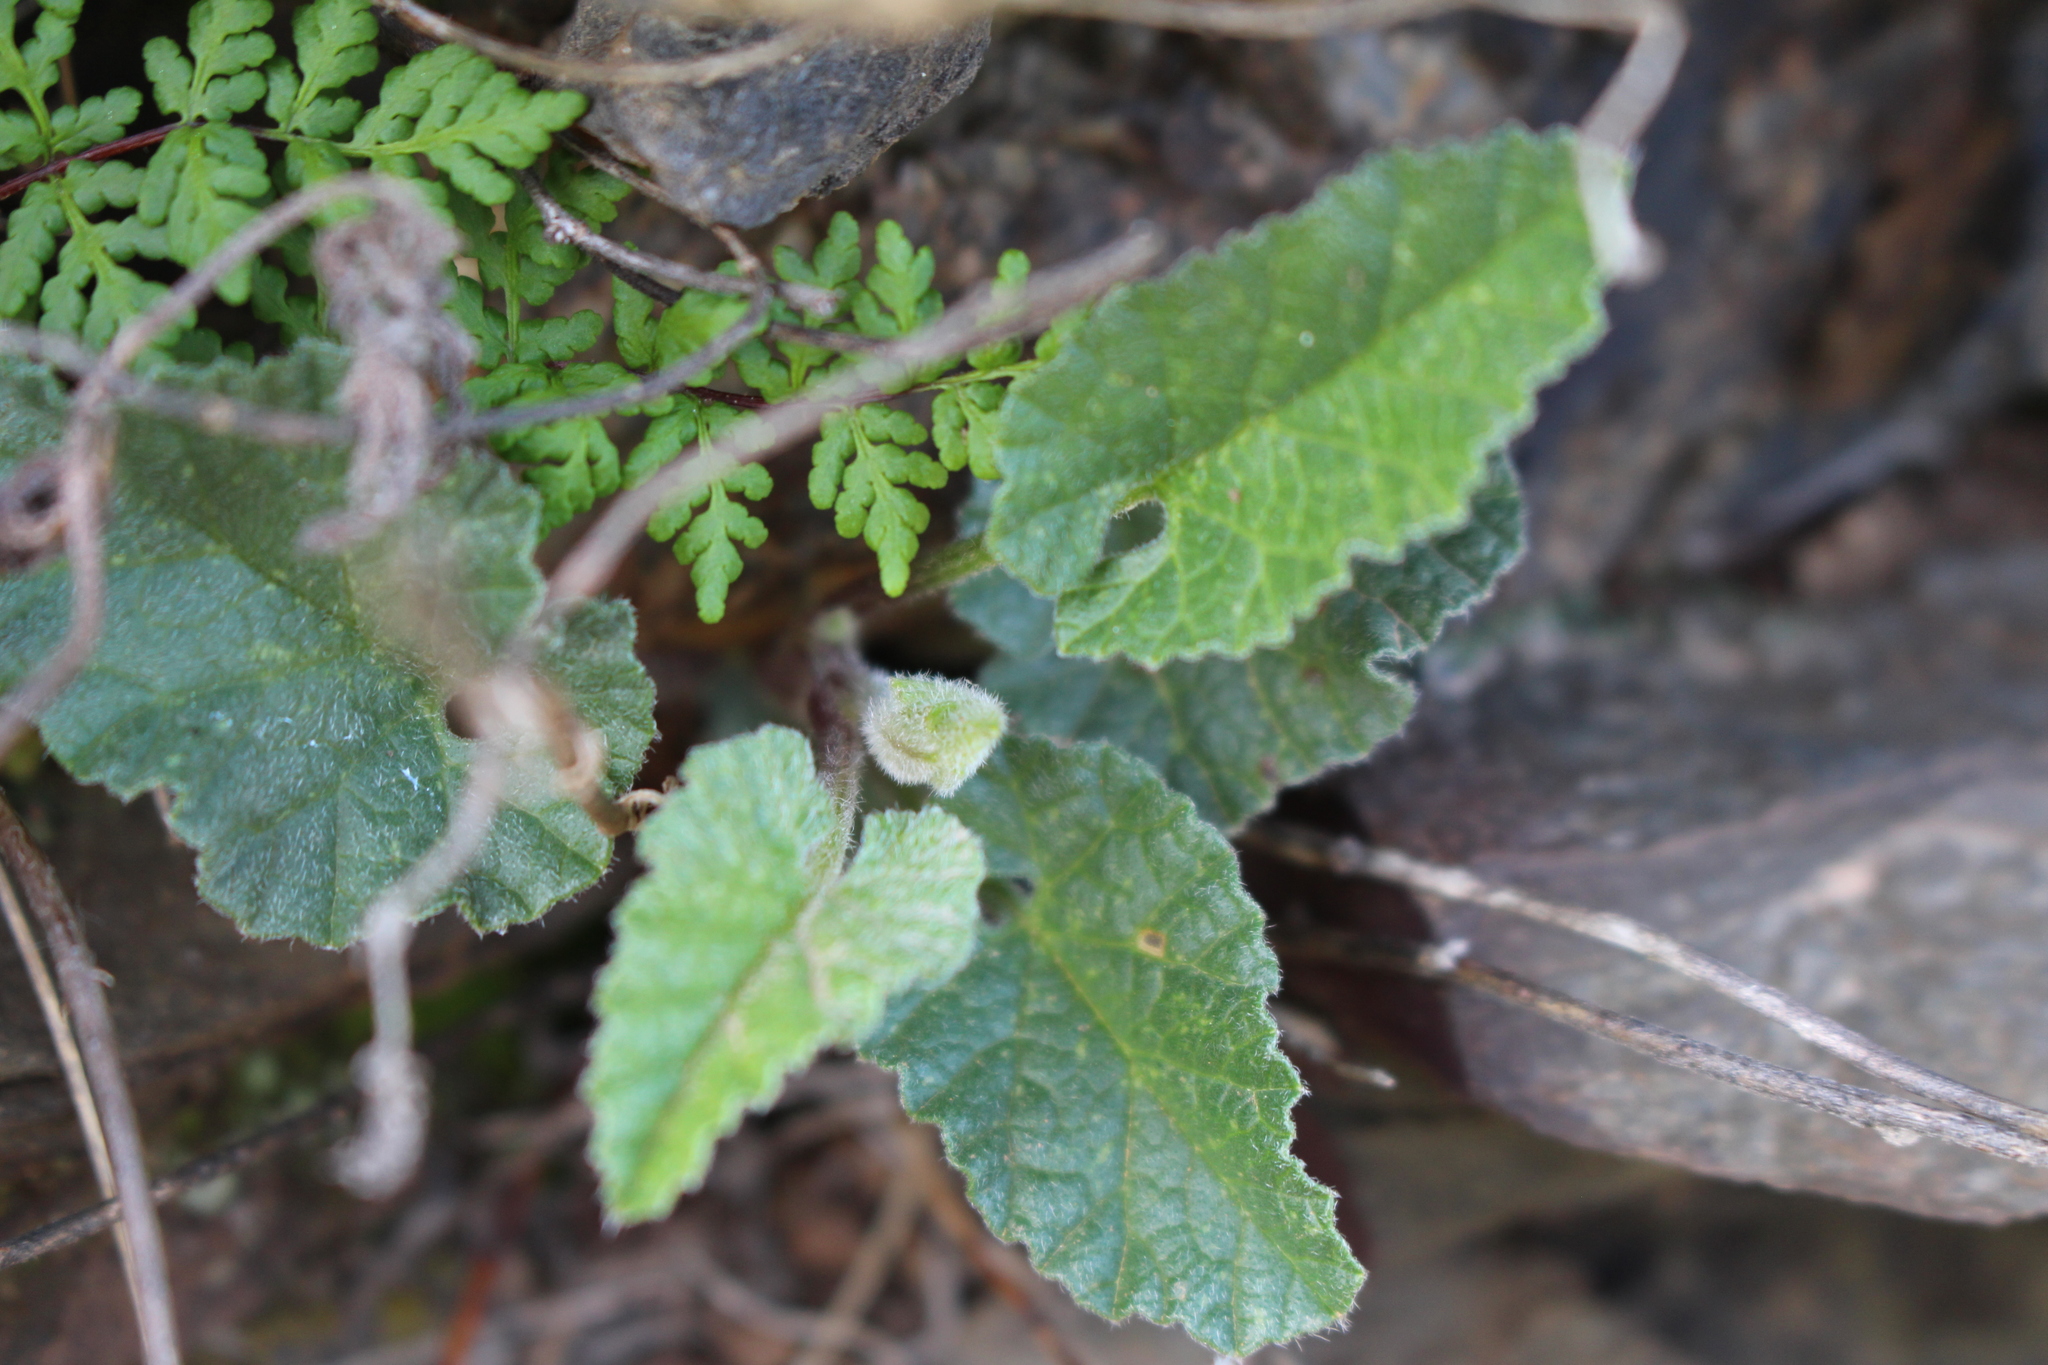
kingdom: Plantae
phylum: Tracheophyta
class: Magnoliopsida
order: Solanales
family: Convolvulaceae
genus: Convolvulus
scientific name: Convolvulus althaeoides
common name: Mallow bindweed
